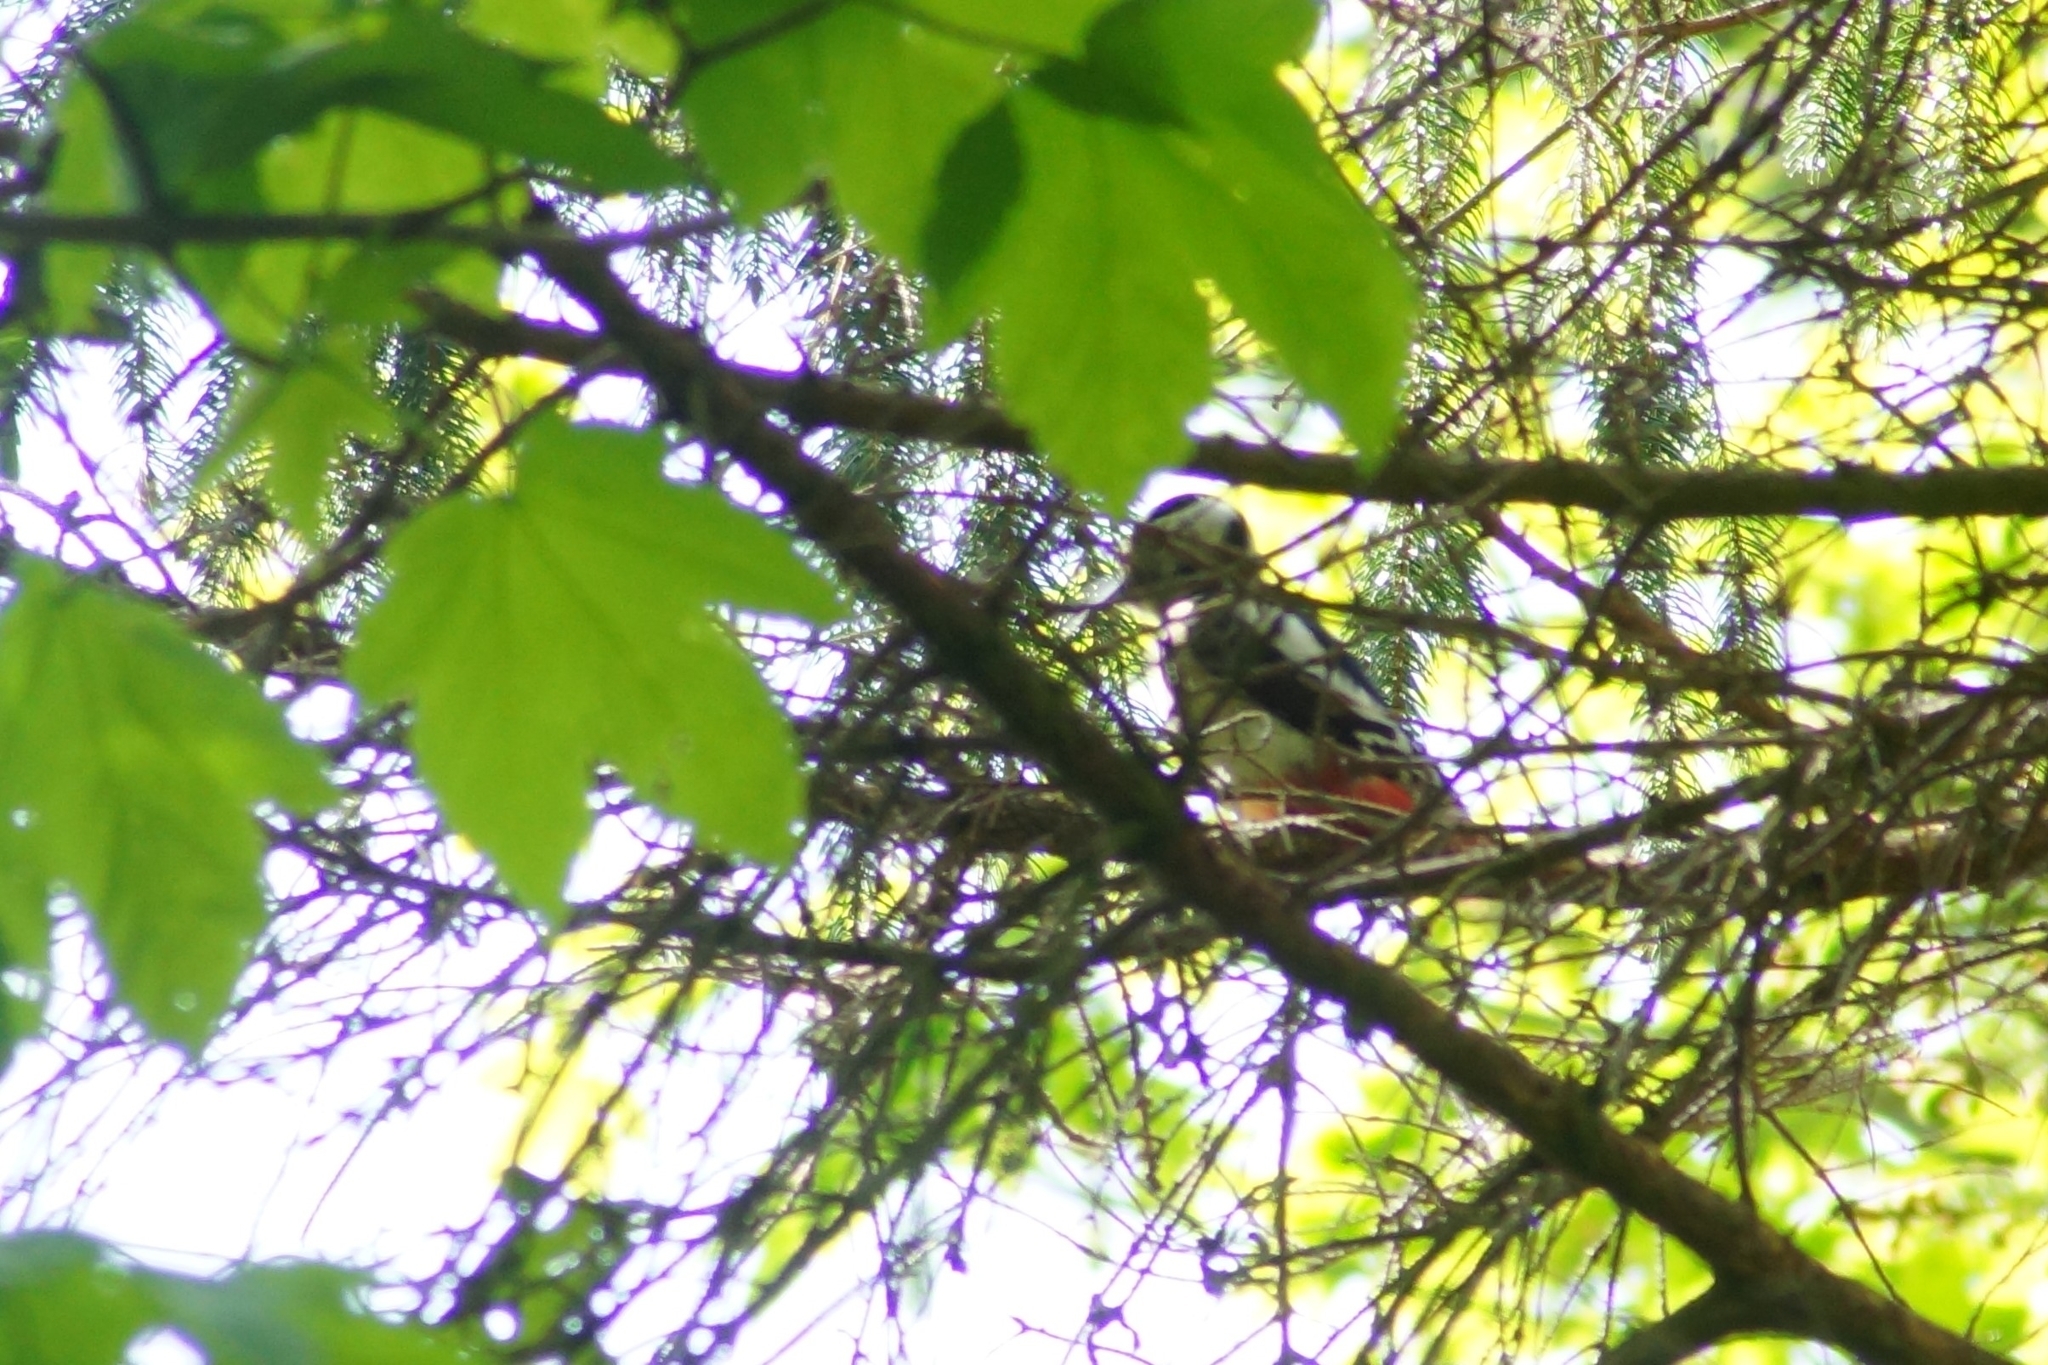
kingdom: Animalia
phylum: Chordata
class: Aves
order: Piciformes
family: Picidae
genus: Dendrocopos
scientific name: Dendrocopos major
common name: Great spotted woodpecker
